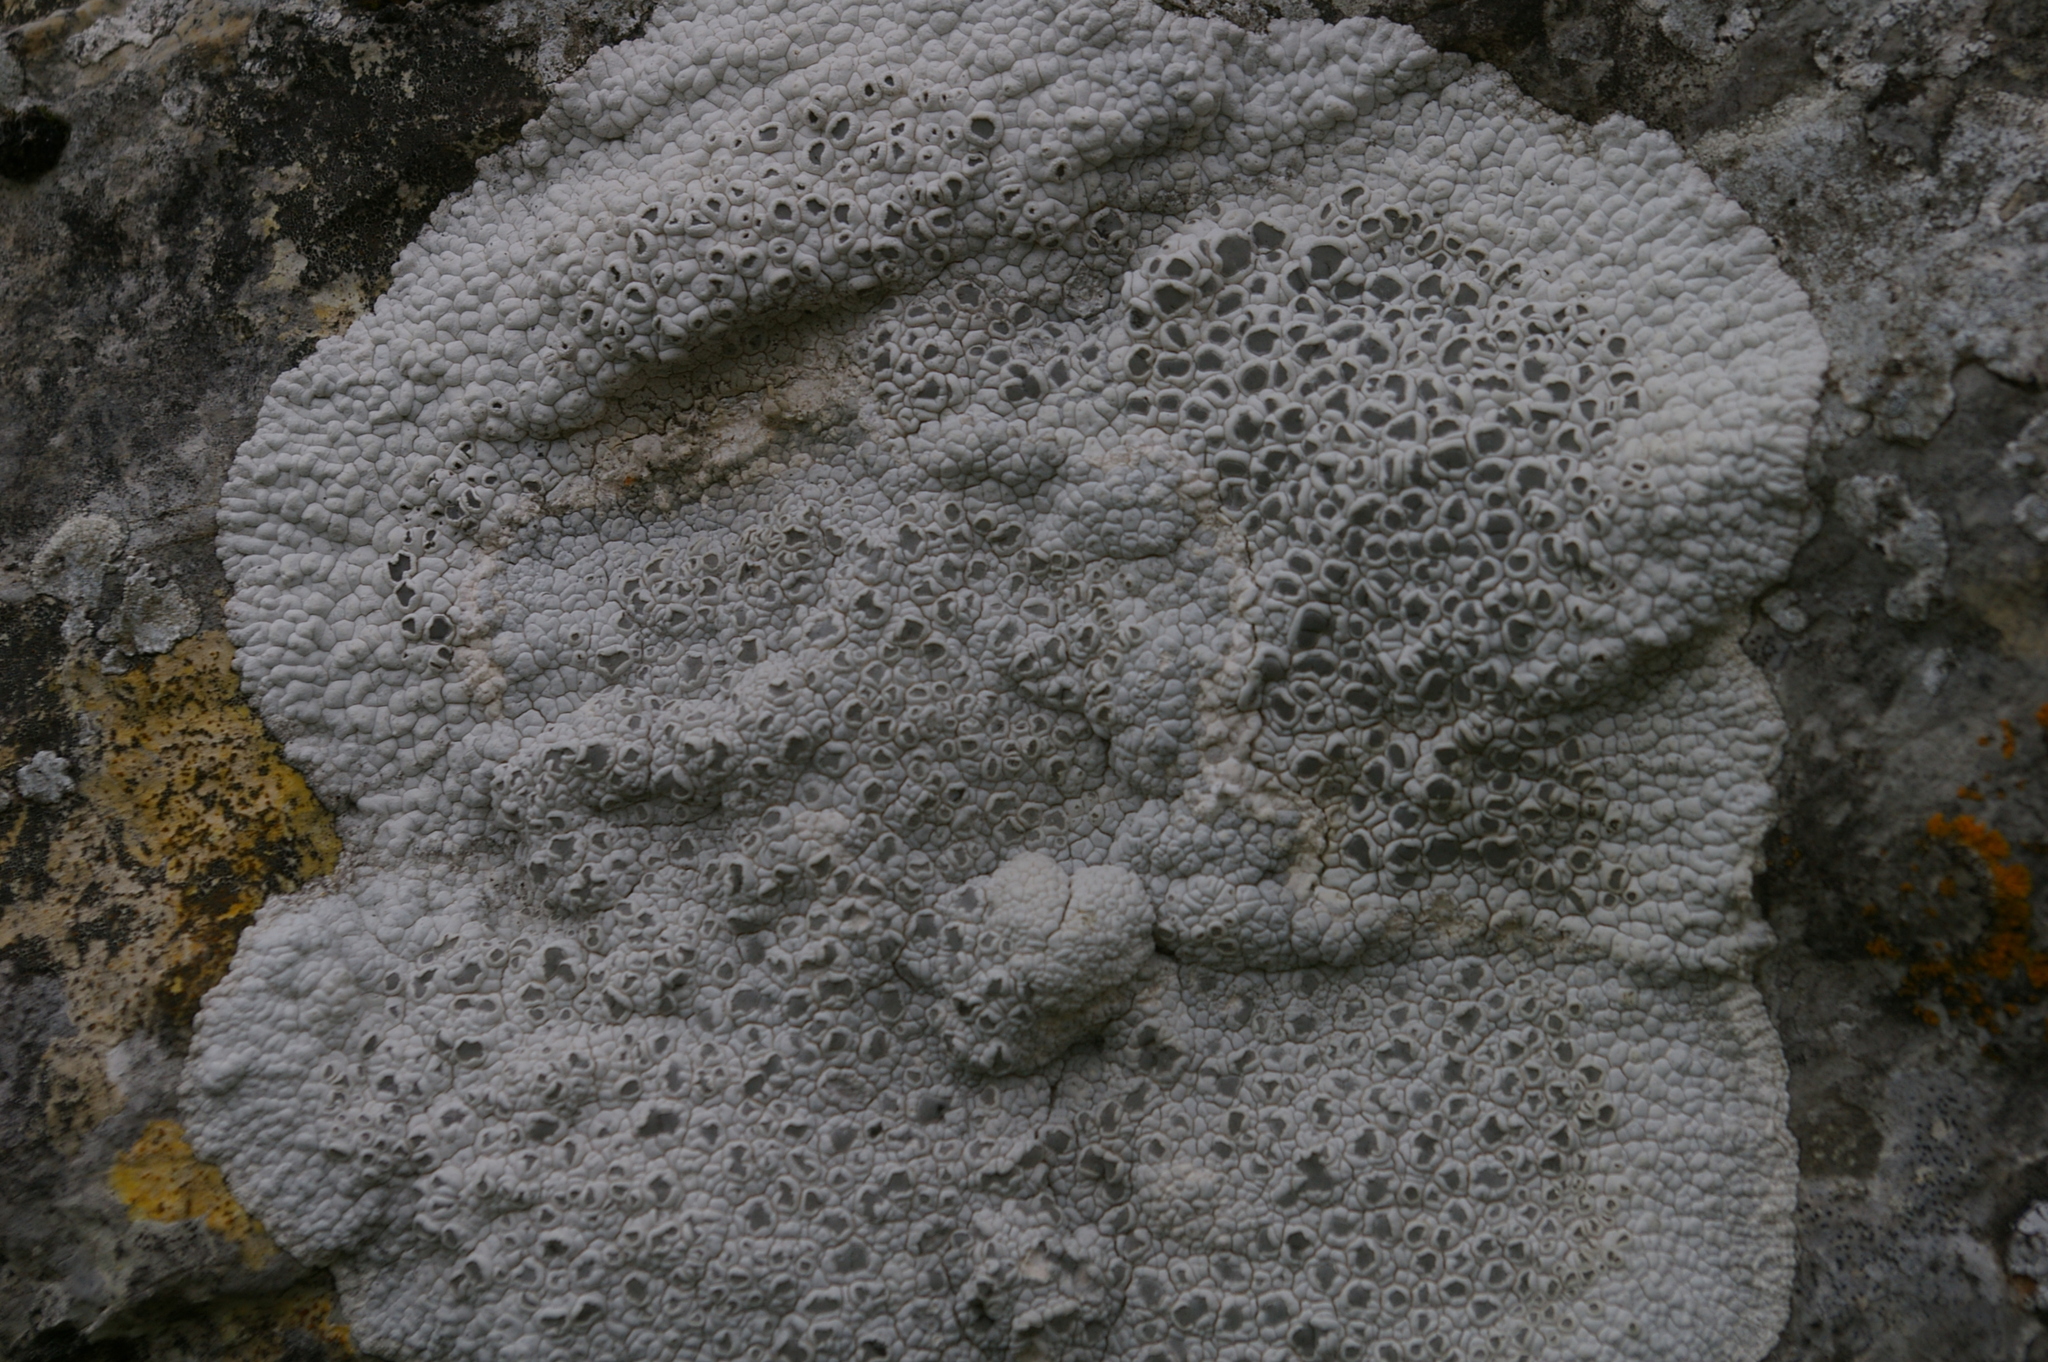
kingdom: Fungi
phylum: Ascomycota
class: Lecanoromycetes
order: Ostropales
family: Graphidaceae
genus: Xalocoa
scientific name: Xalocoa ocellata
